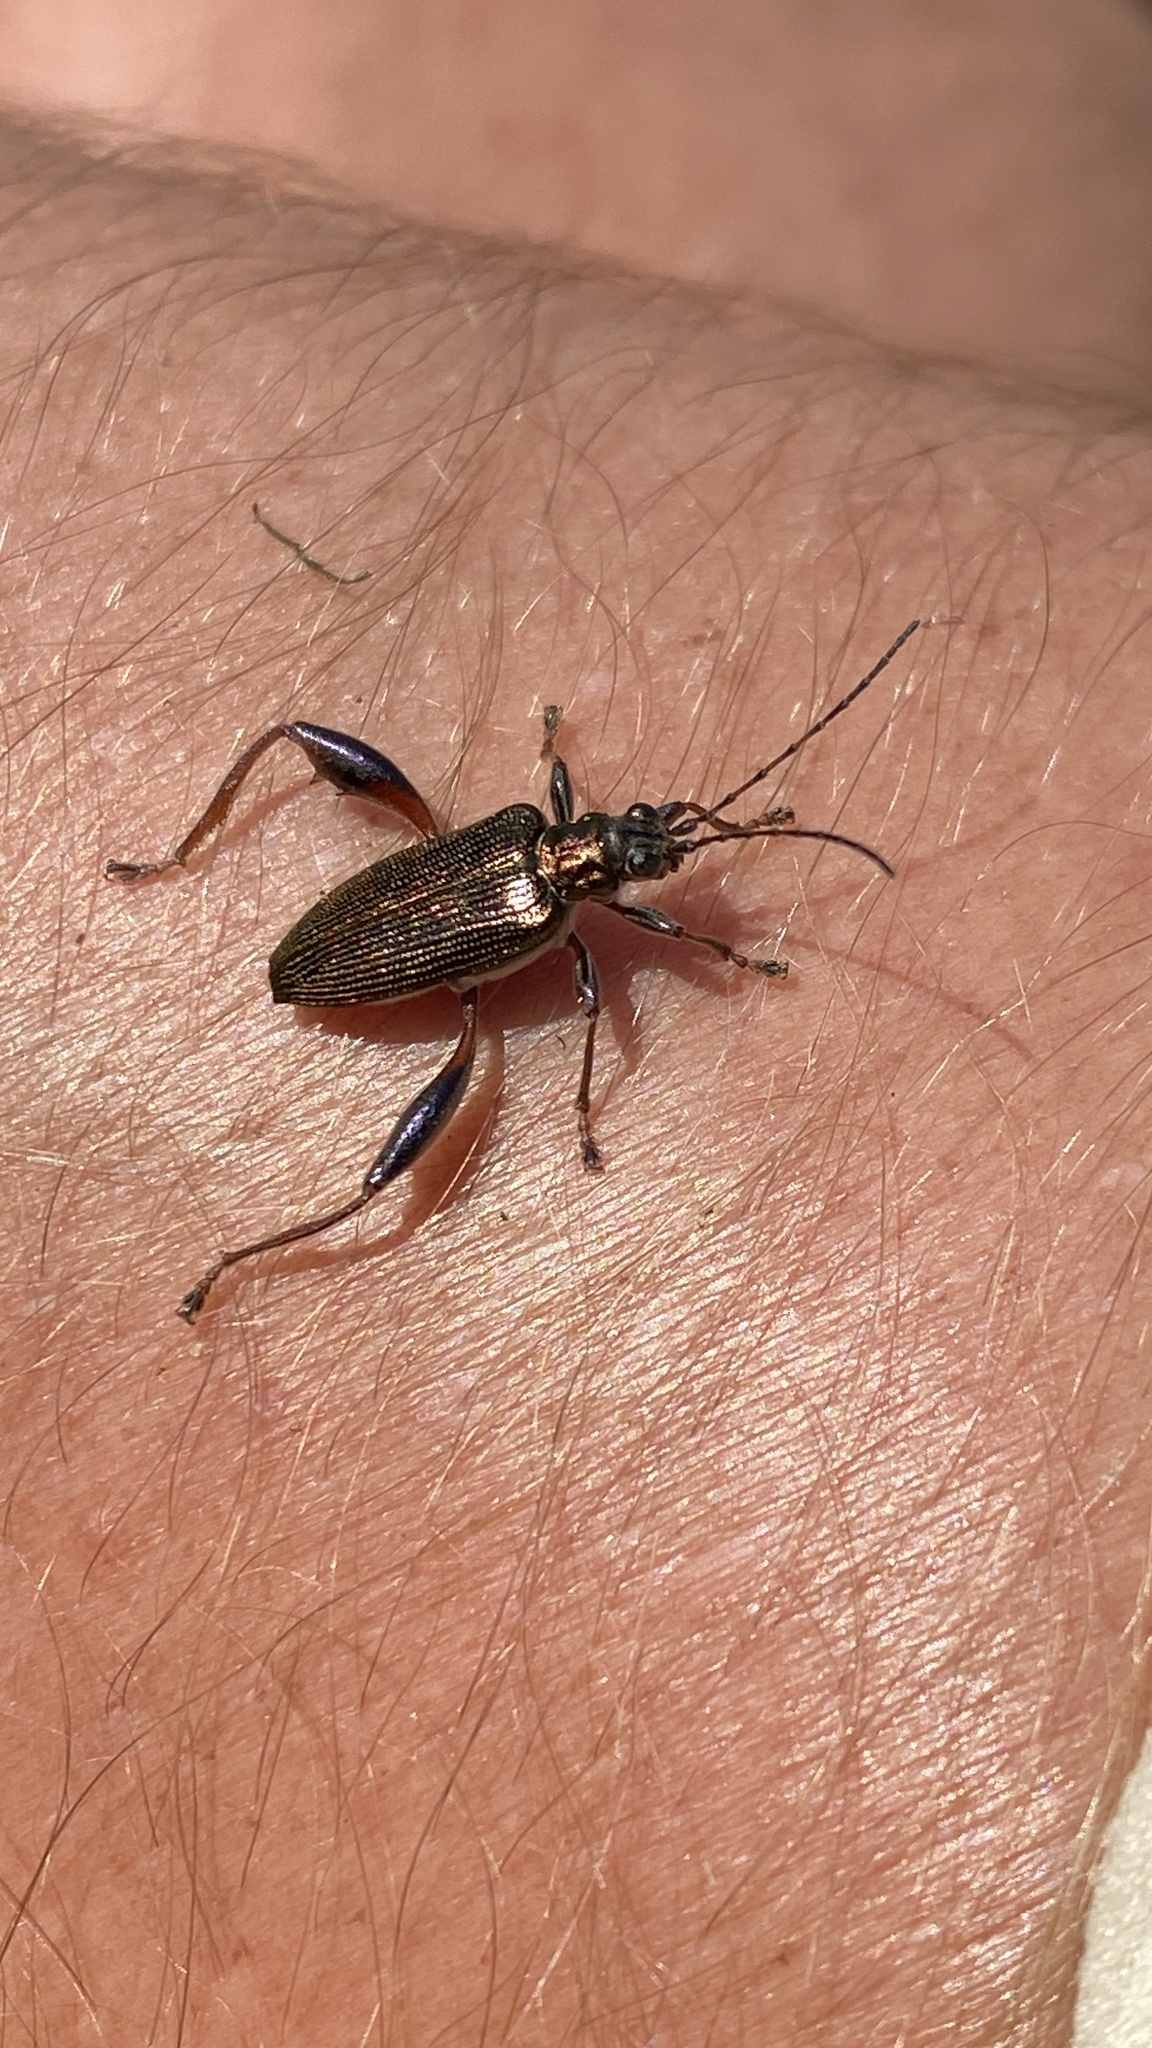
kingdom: Animalia
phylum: Arthropoda
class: Insecta
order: Coleoptera
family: Chrysomelidae
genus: Donacia
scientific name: Donacia crassipes
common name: Water-lily reed beetle
